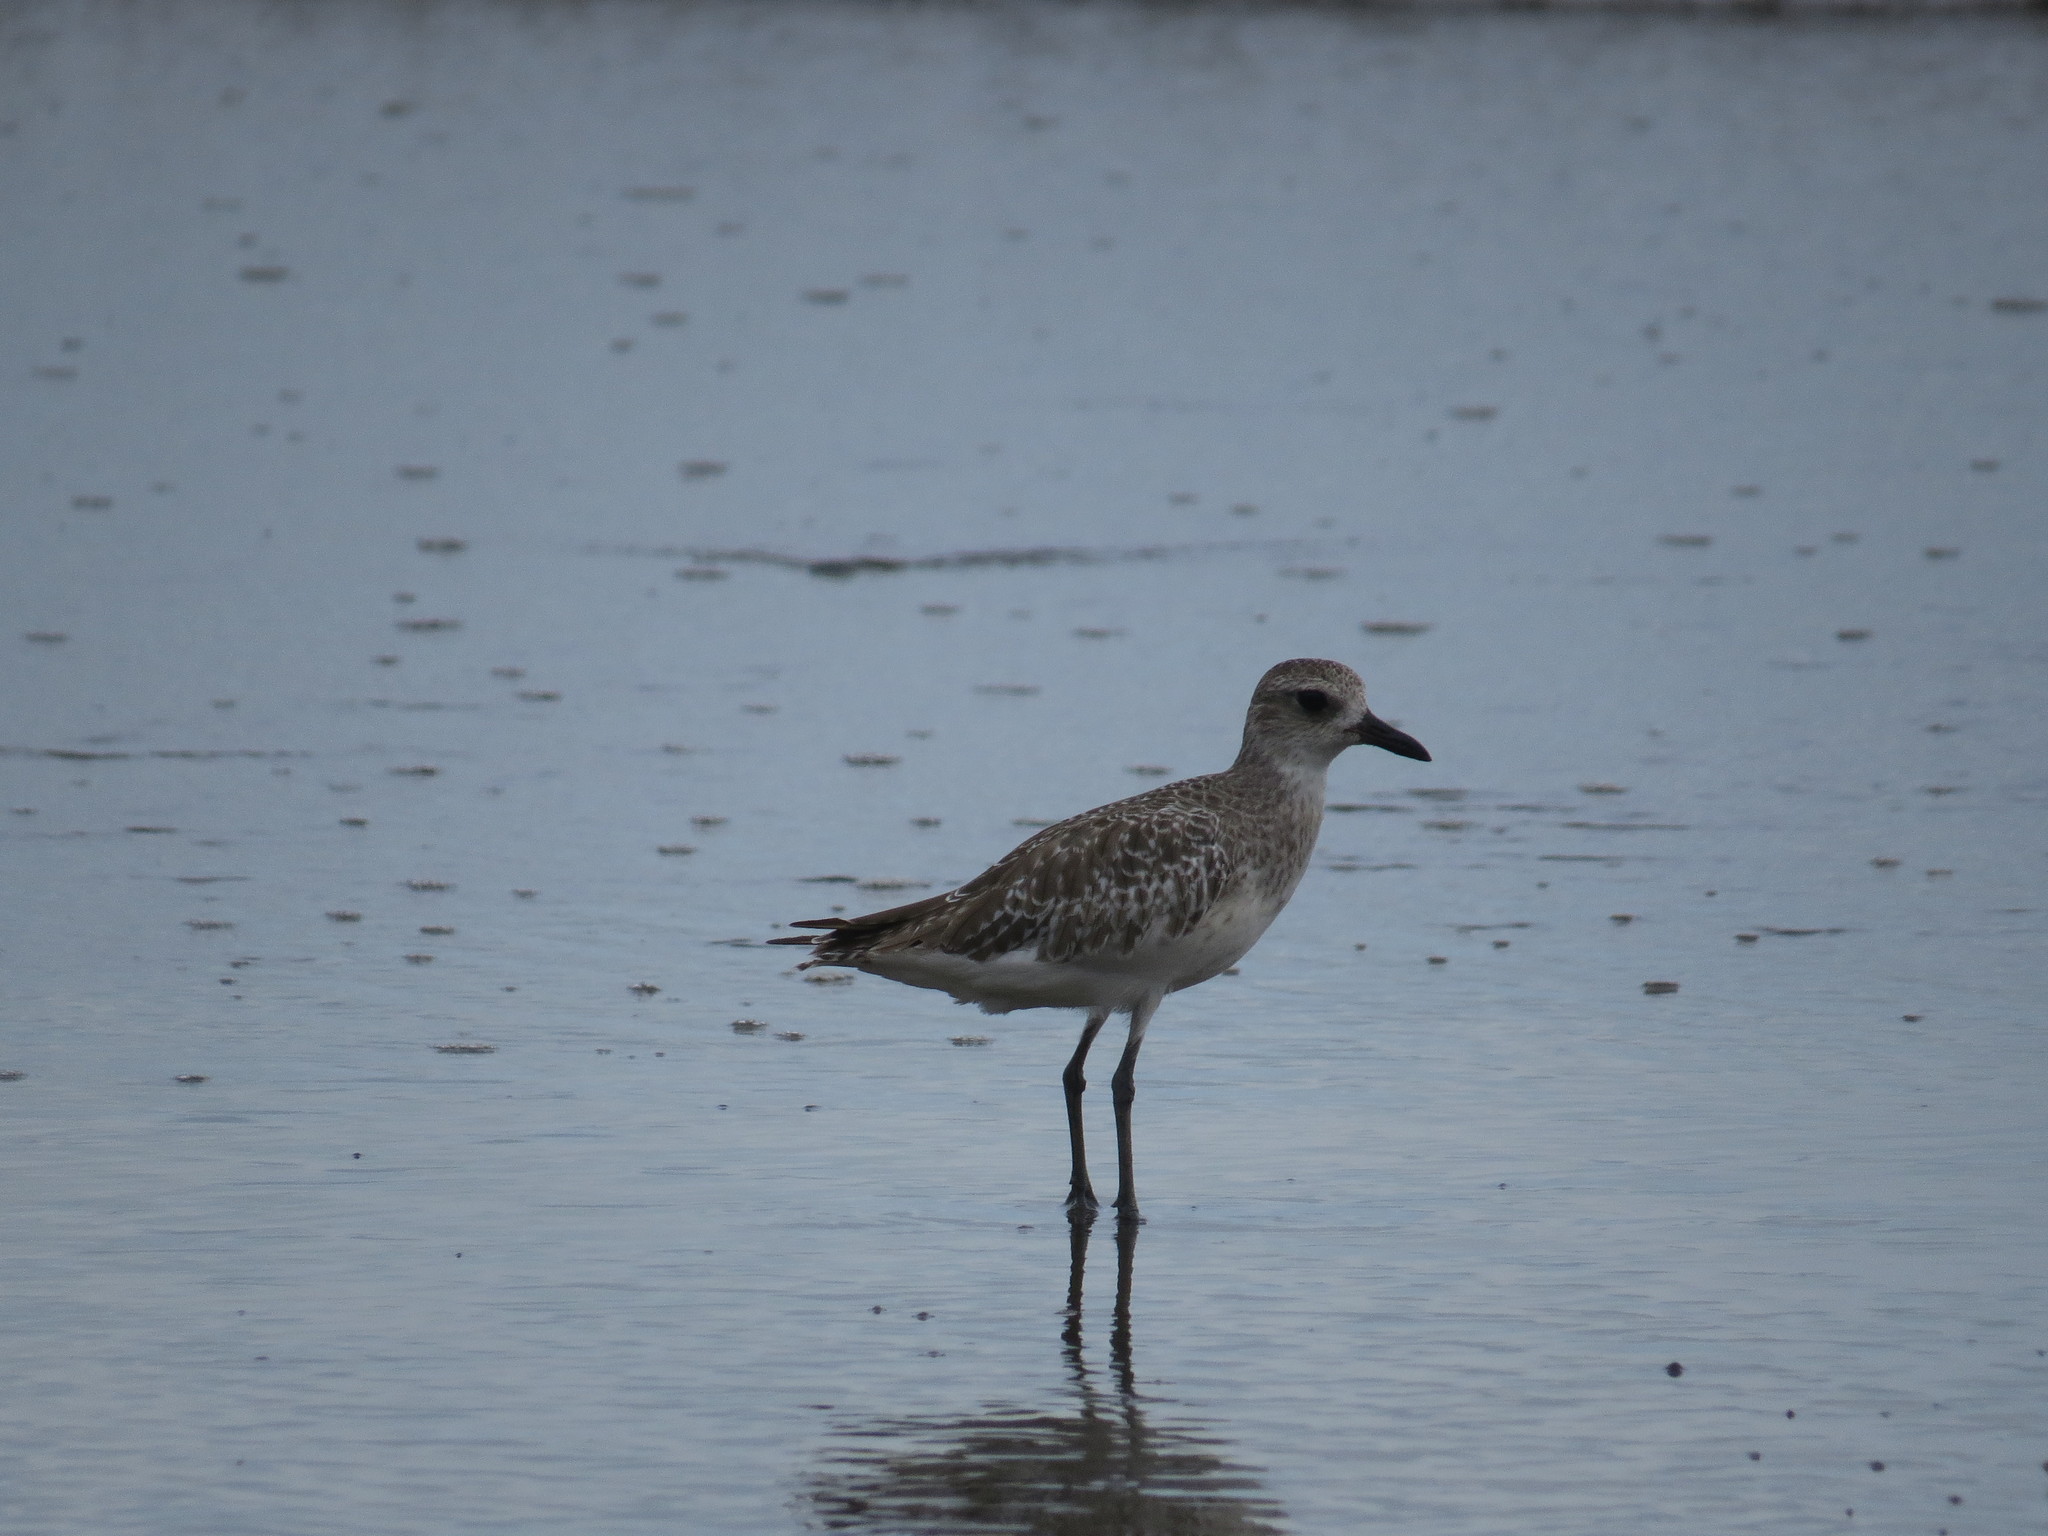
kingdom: Animalia
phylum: Chordata
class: Aves
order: Charadriiformes
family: Charadriidae
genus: Pluvialis
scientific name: Pluvialis squatarola
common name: Grey plover
